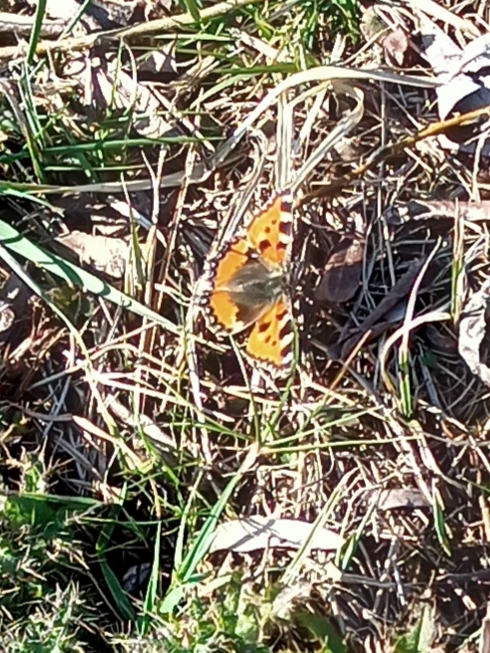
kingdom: Animalia
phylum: Arthropoda
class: Insecta
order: Lepidoptera
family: Nymphalidae
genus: Aglais
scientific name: Aglais urticae
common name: Small tortoiseshell
